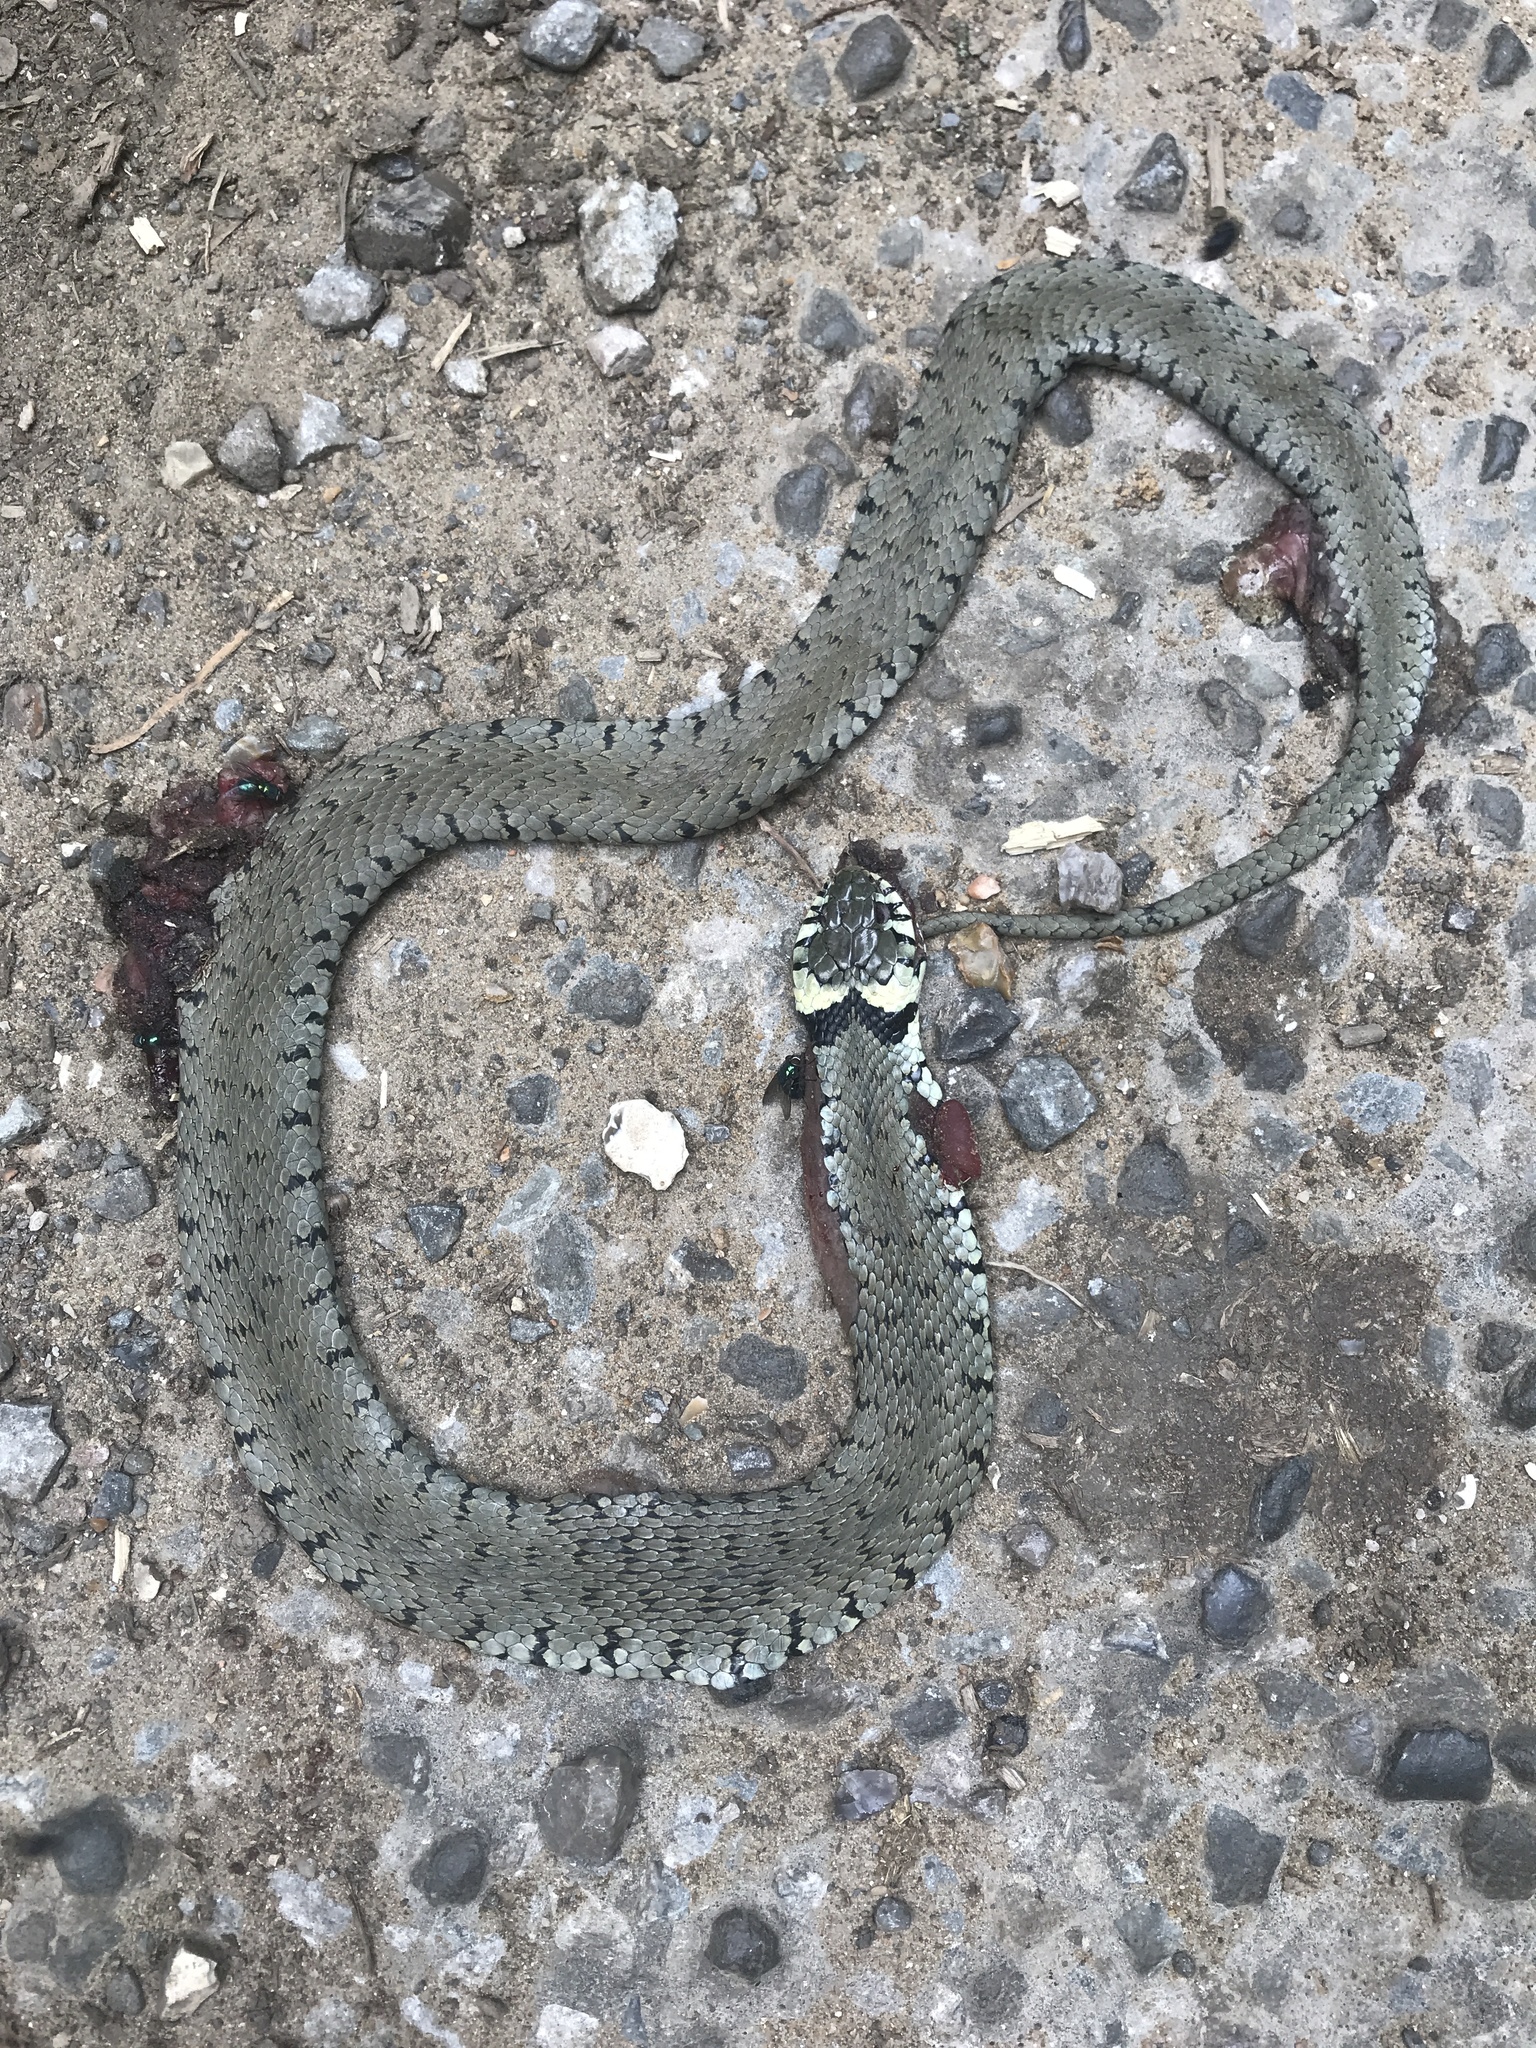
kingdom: Animalia
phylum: Chordata
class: Squamata
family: Colubridae
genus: Natrix
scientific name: Natrix helvetica
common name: Banded grass snake
